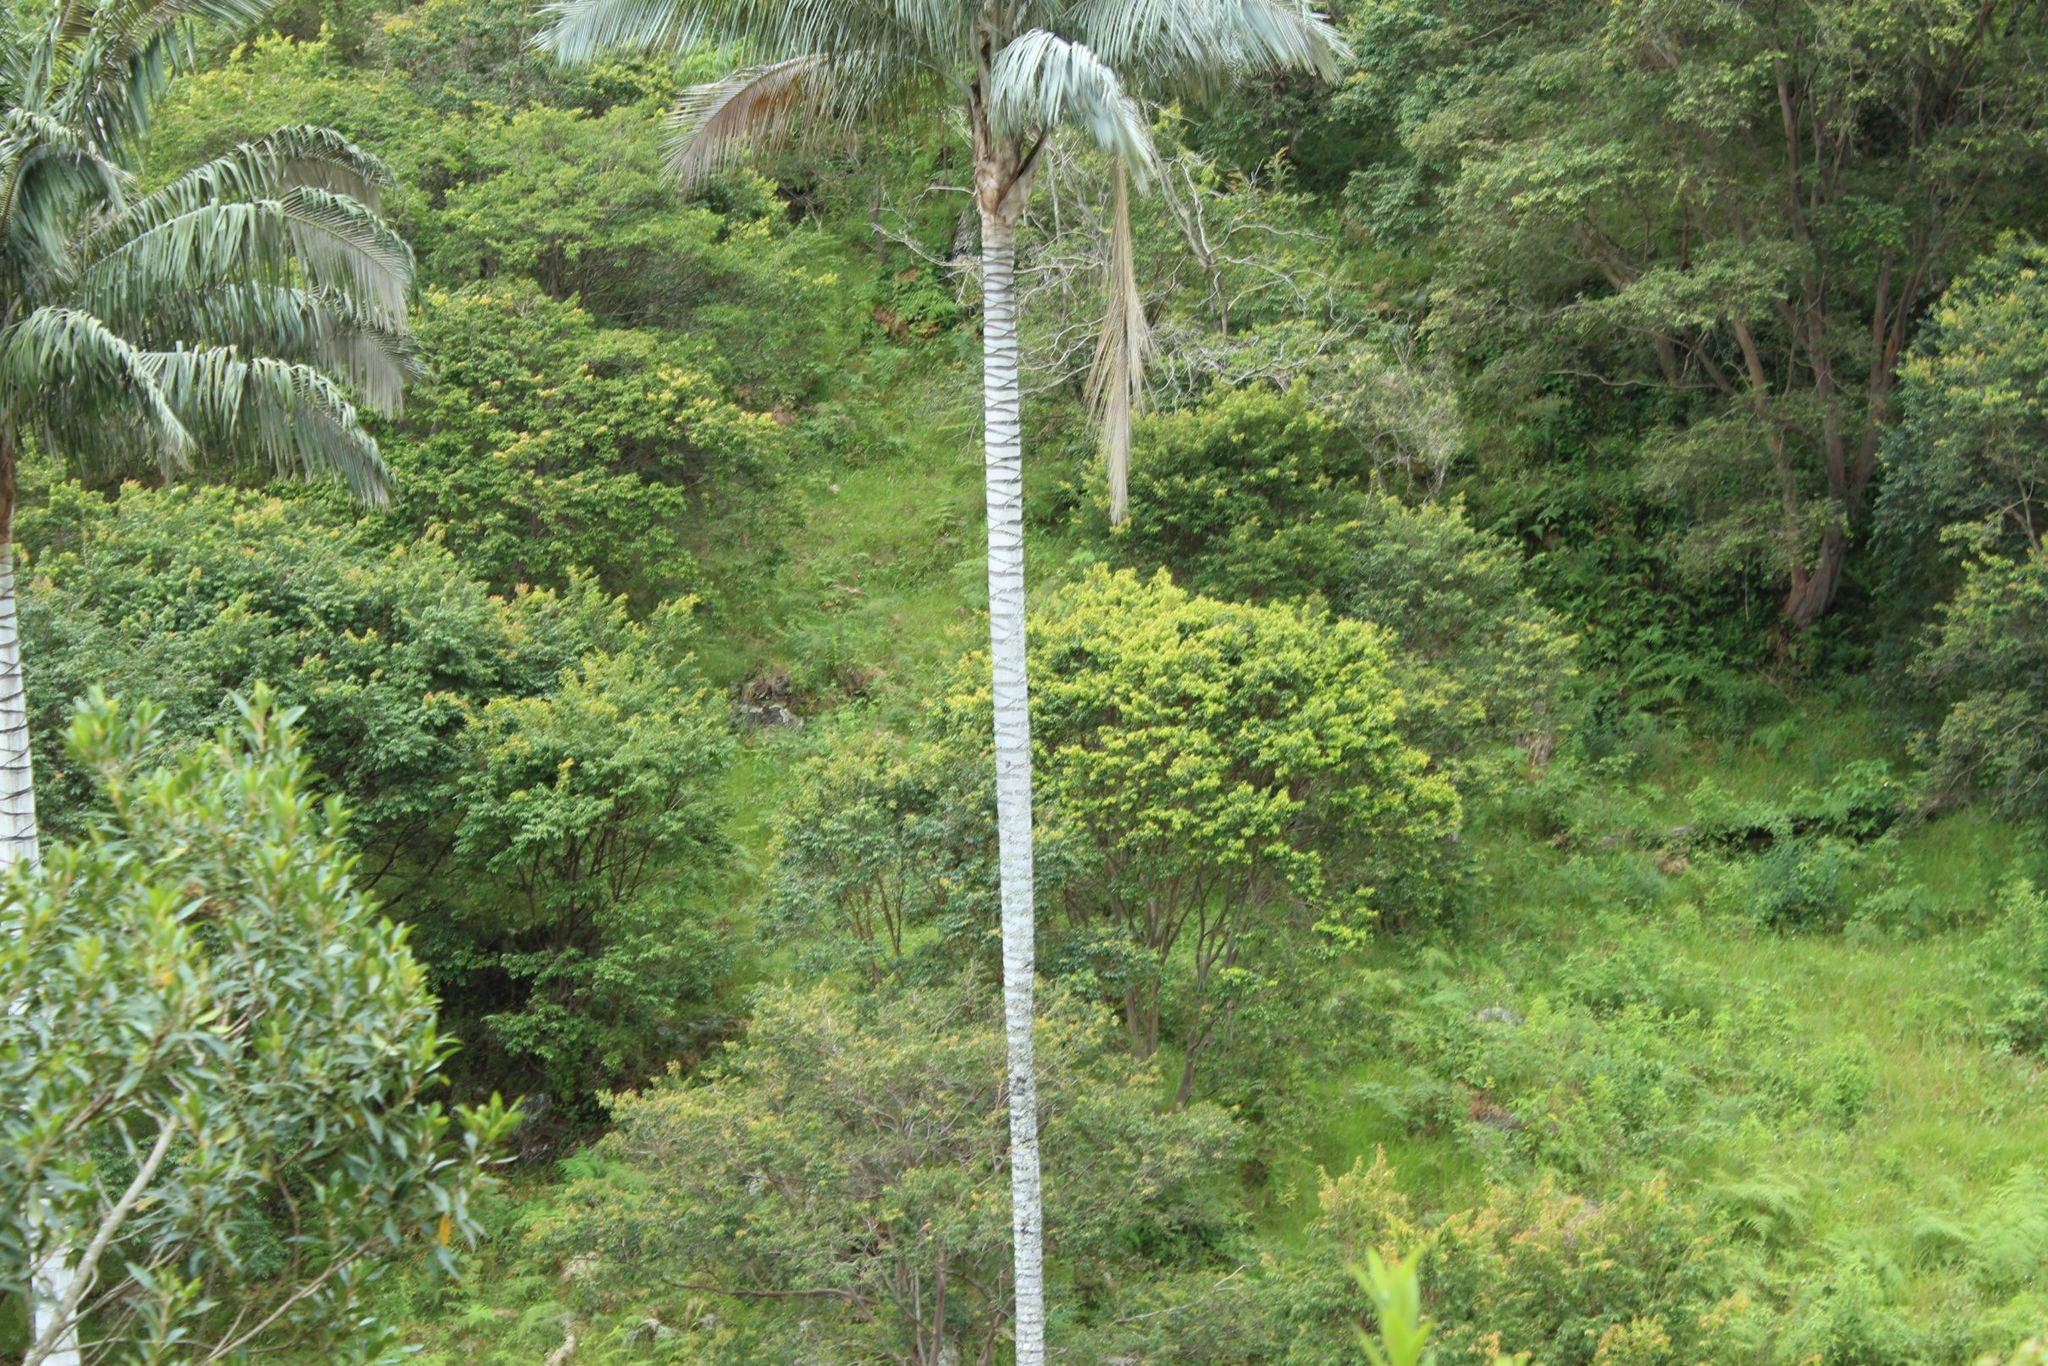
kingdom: Plantae
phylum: Tracheophyta
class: Liliopsida
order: Arecales
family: Arecaceae
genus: Ceroxylon
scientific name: Ceroxylon quindiuense
